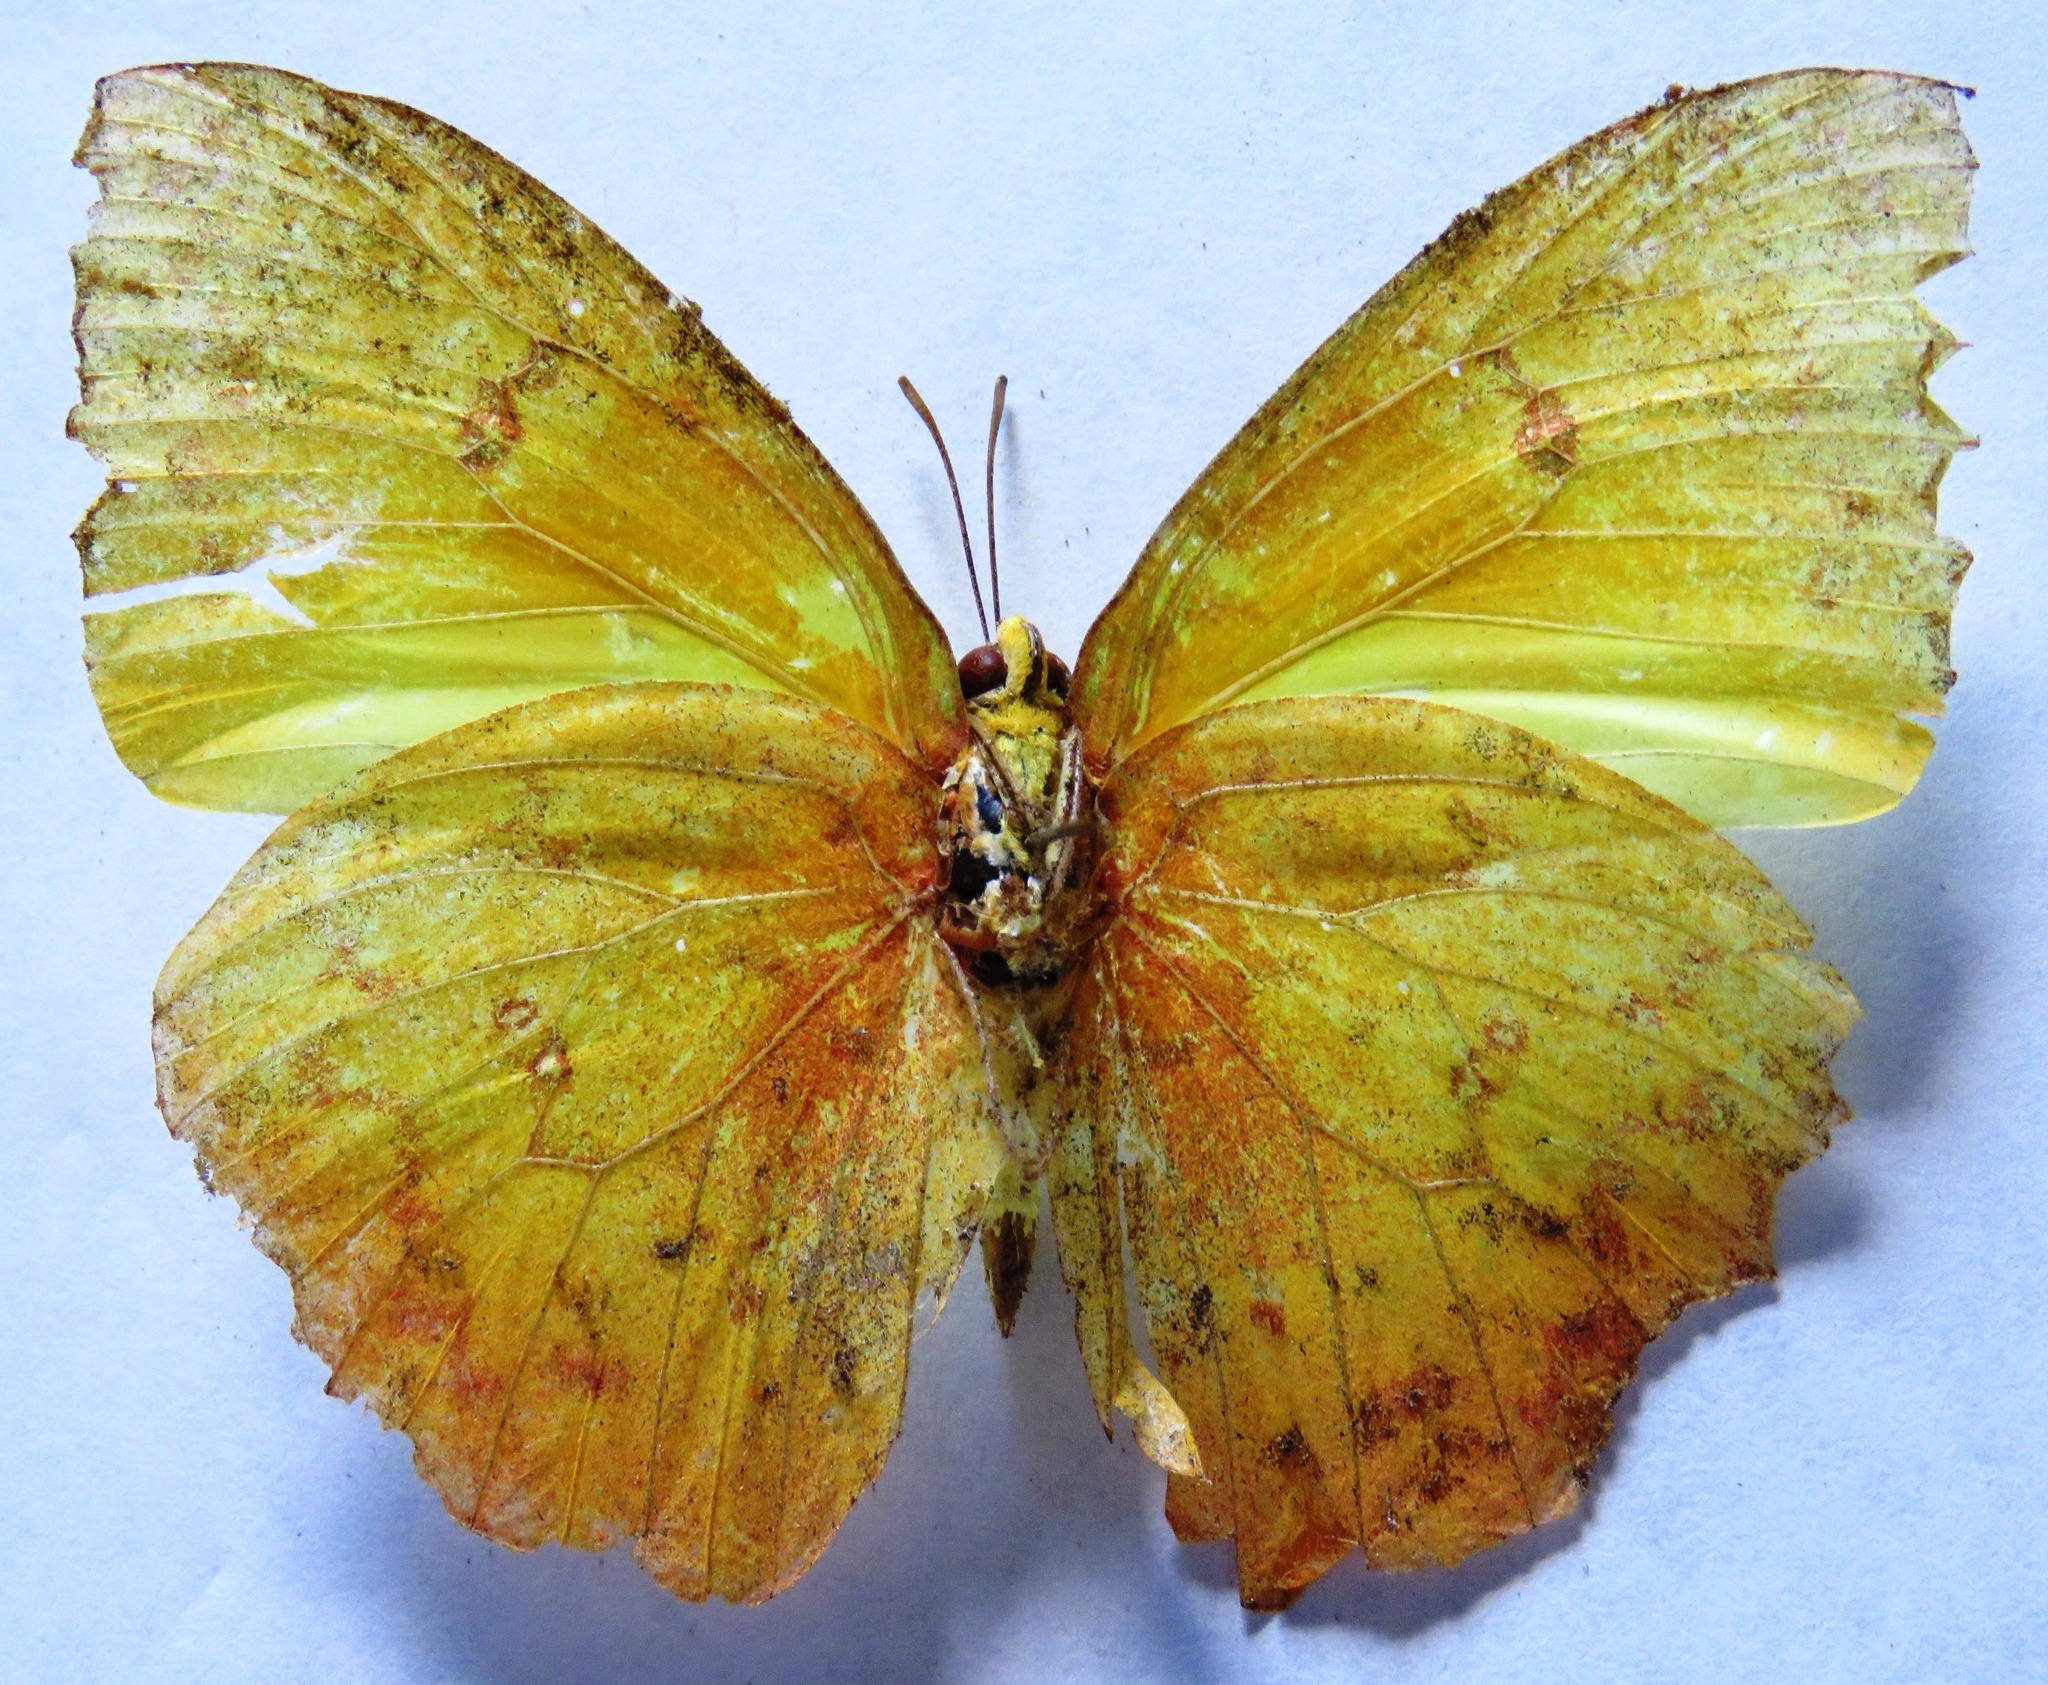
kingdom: Animalia
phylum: Arthropoda
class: Insecta
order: Lepidoptera
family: Pieridae
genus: Phoebis
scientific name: Phoebis philea
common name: Orange-barred giant sulphur
